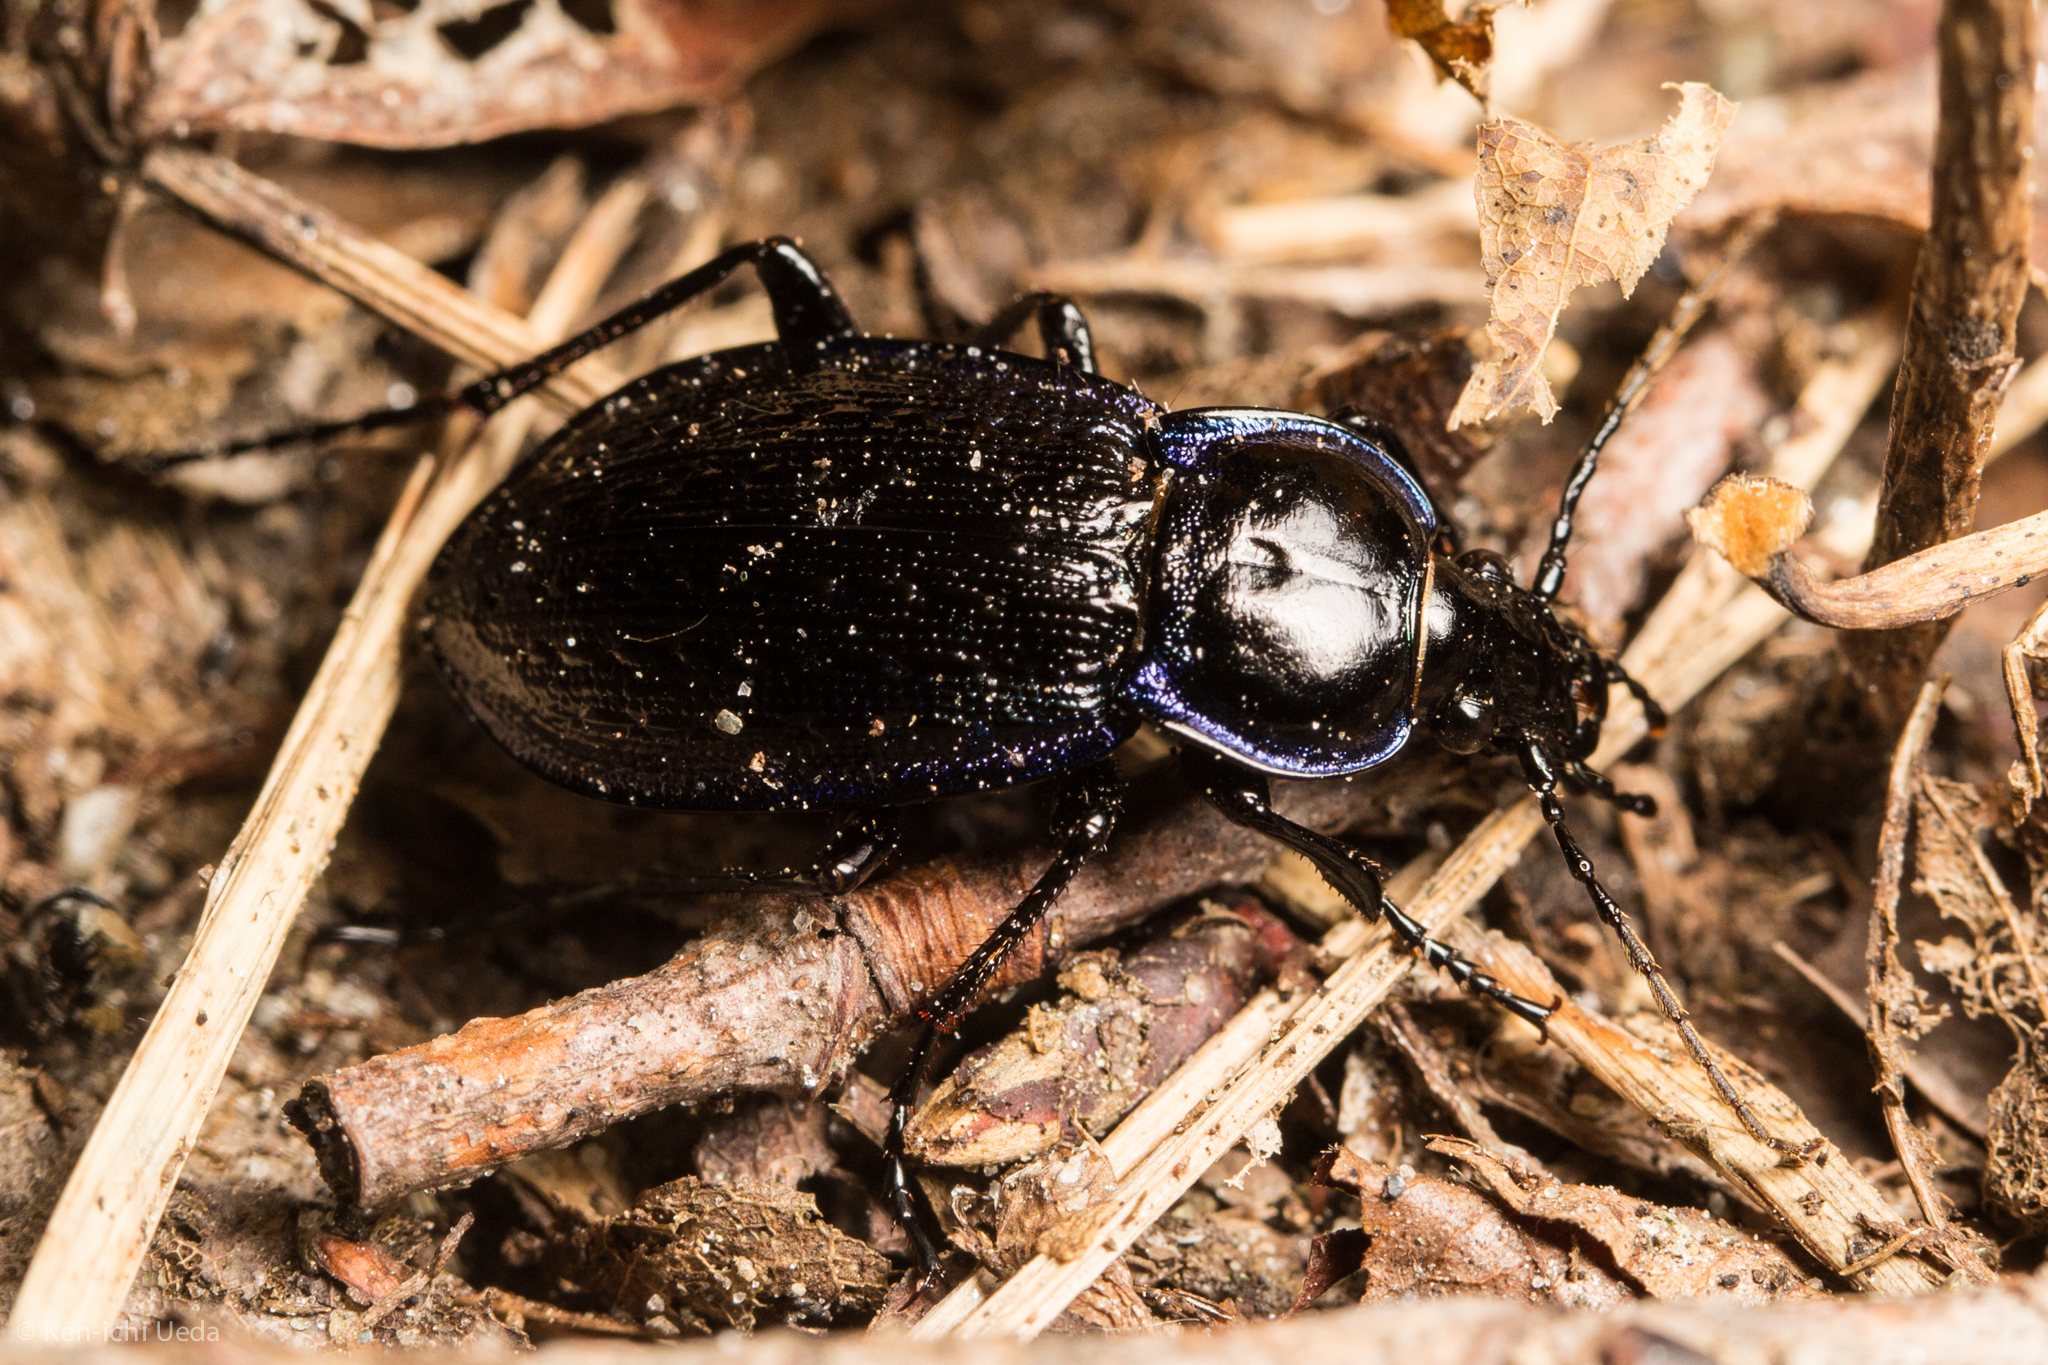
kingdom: Animalia
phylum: Arthropoda
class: Insecta
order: Coleoptera
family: Carabidae
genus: Carabus
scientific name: Carabus serratus
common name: Serrate-shoulder worm and slug hunter
